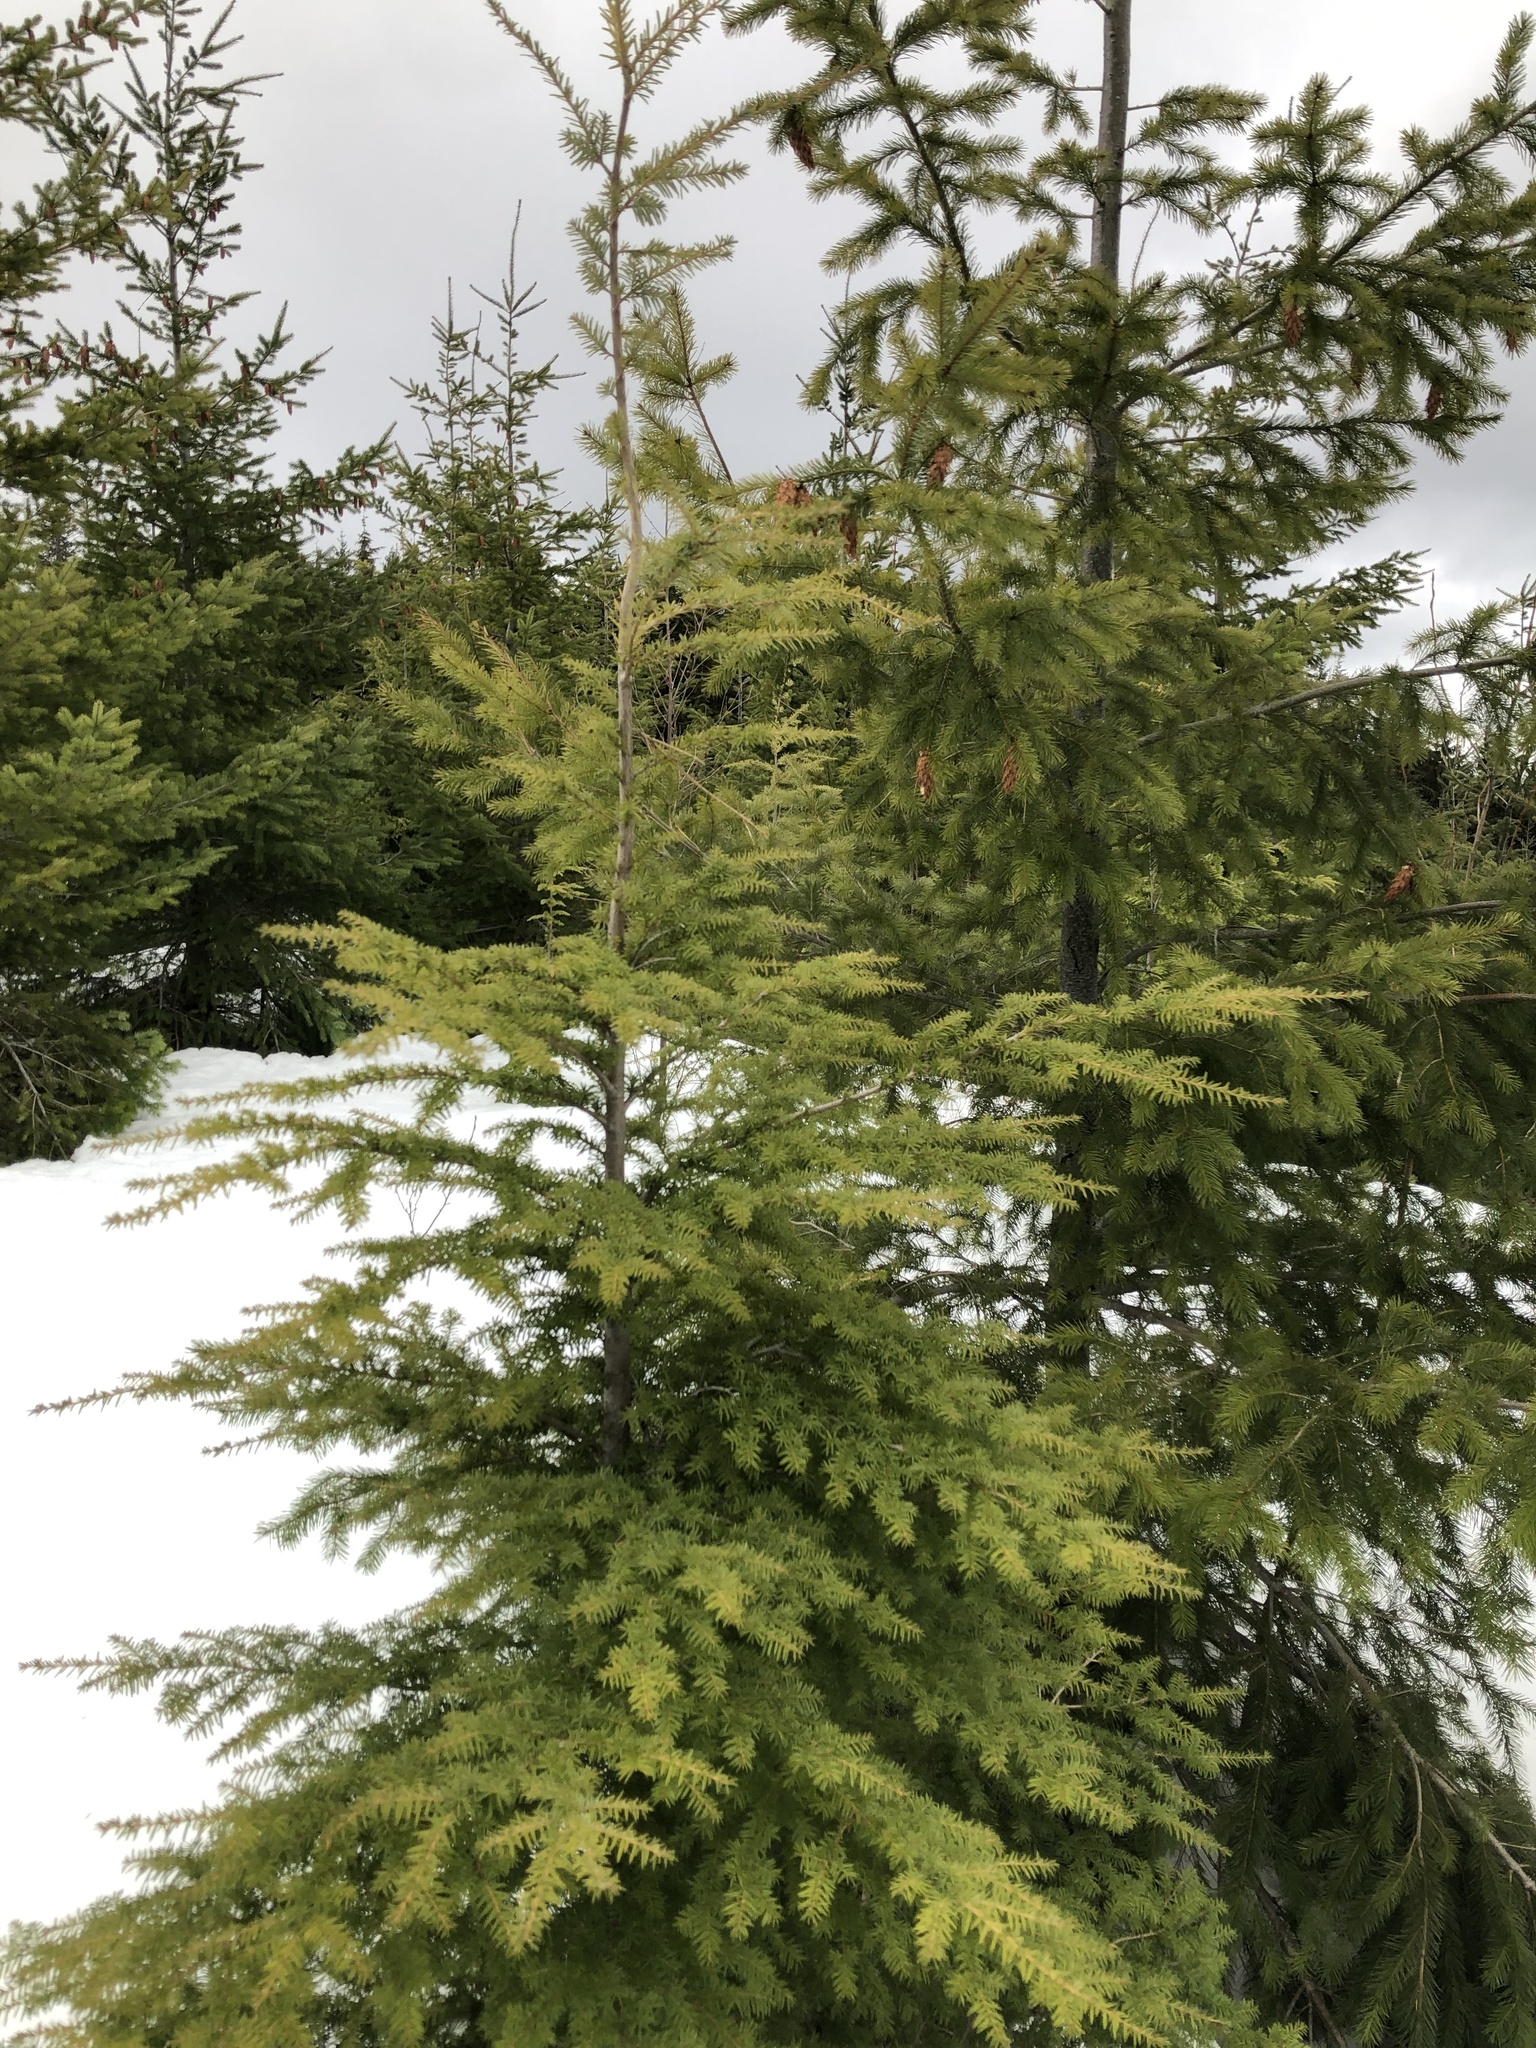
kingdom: Plantae
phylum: Tracheophyta
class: Pinopsida
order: Pinales
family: Pinaceae
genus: Tsuga
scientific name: Tsuga heterophylla
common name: Western hemlock
